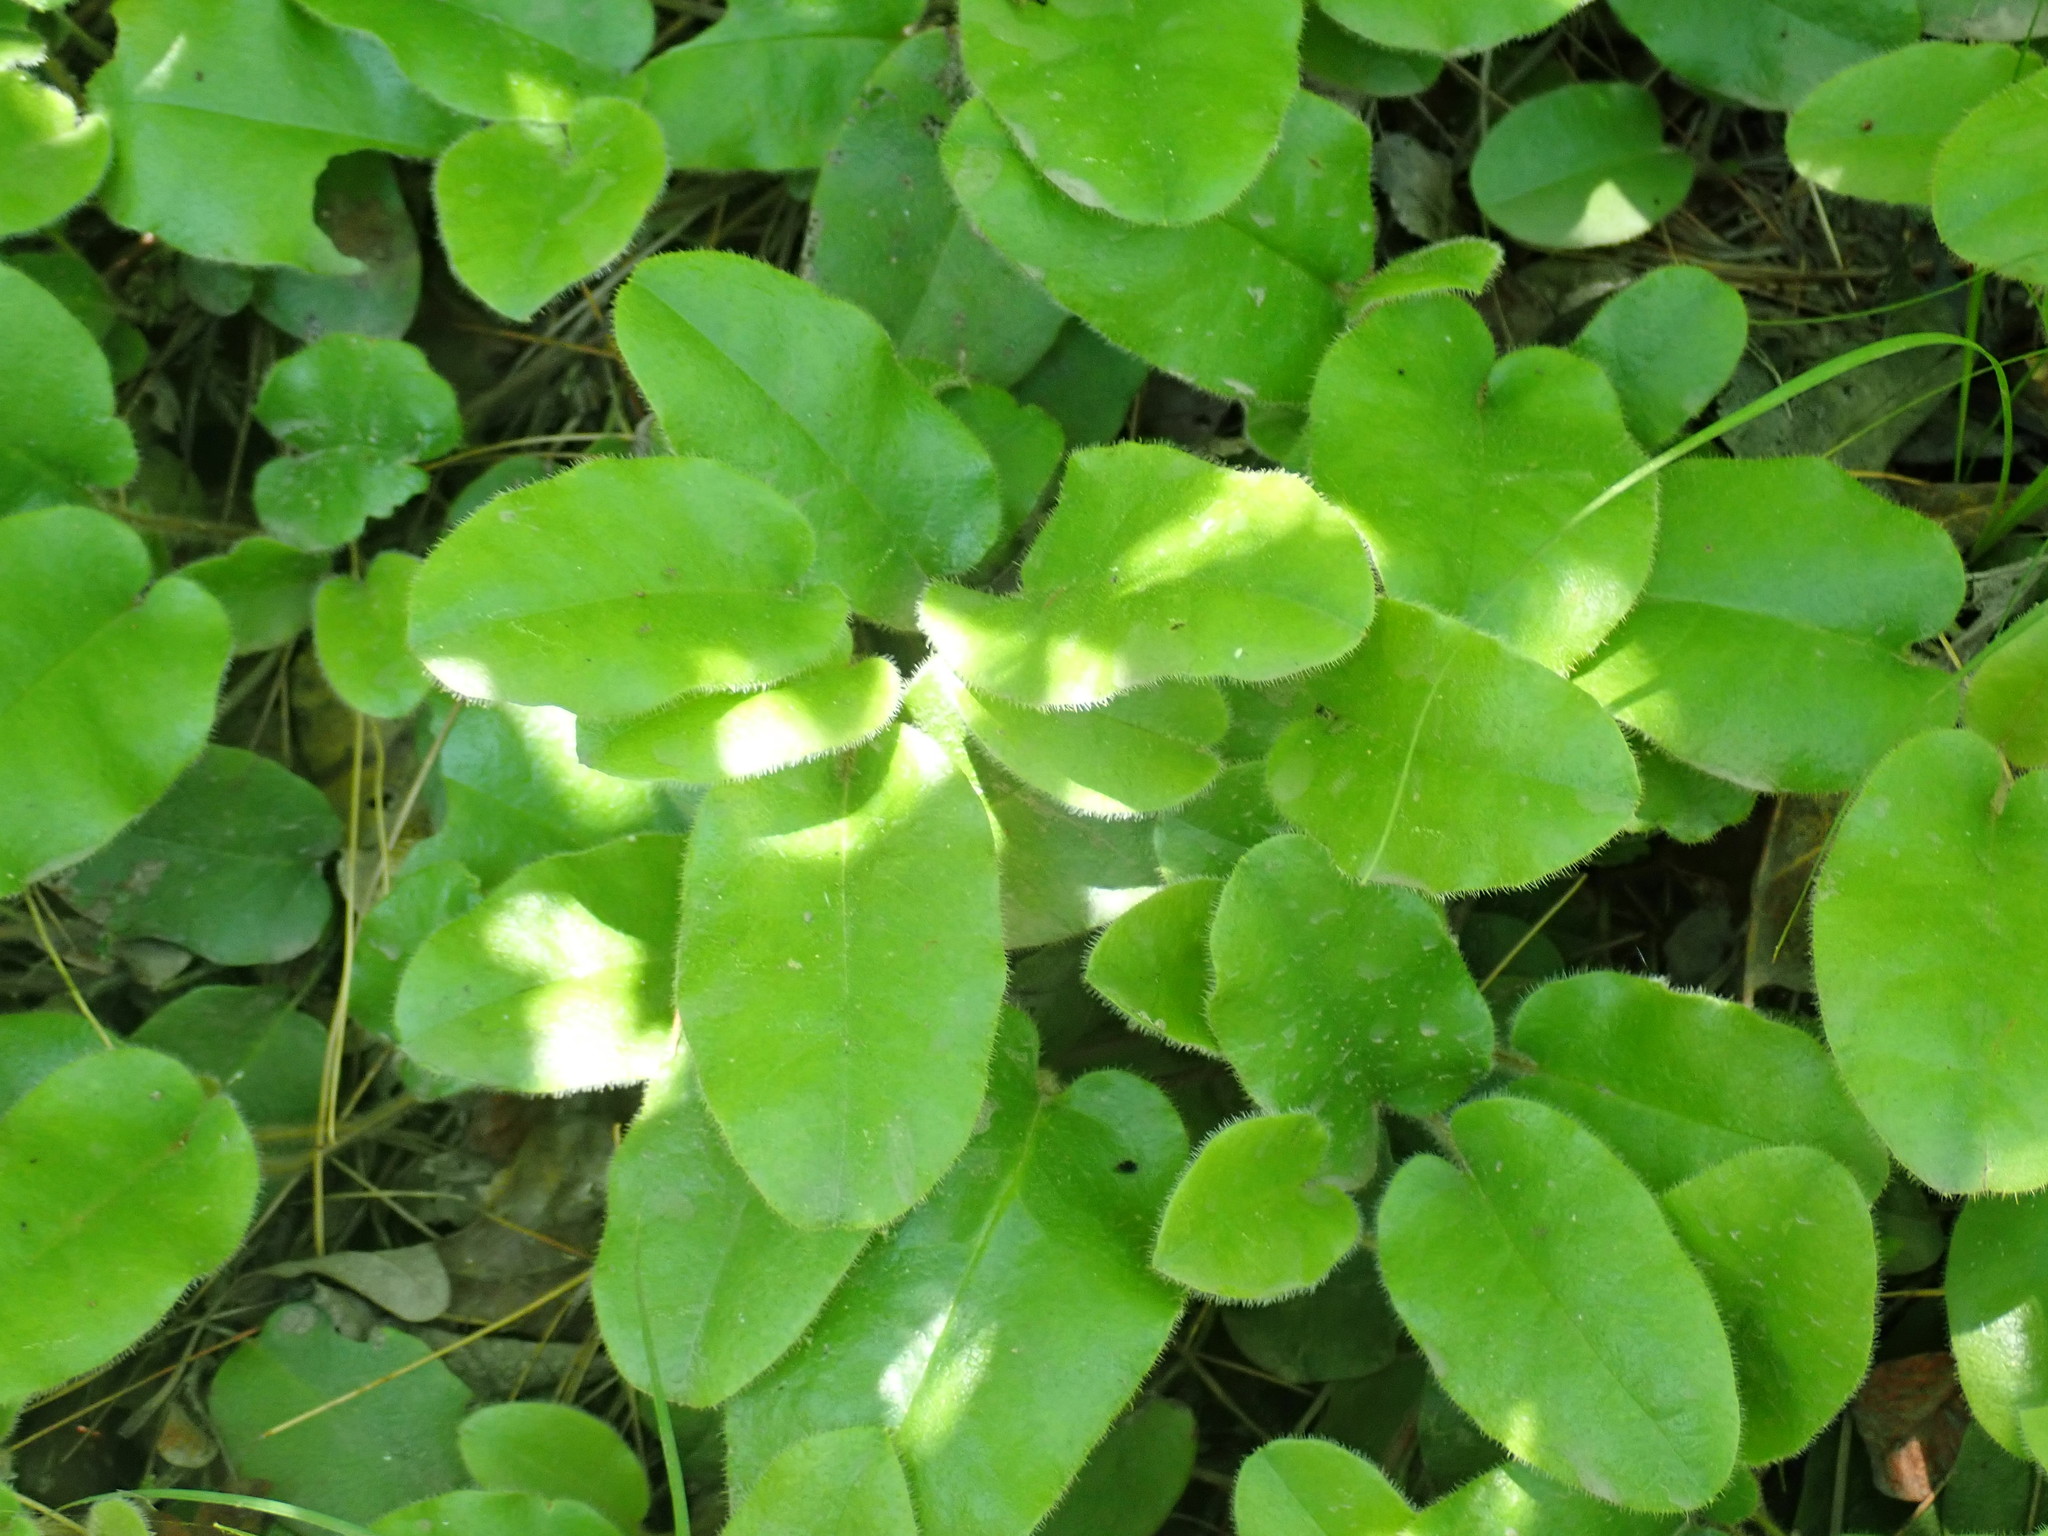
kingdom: Plantae
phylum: Tracheophyta
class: Magnoliopsida
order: Ericales
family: Ericaceae
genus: Epigaea
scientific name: Epigaea repens
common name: Gravelroot
